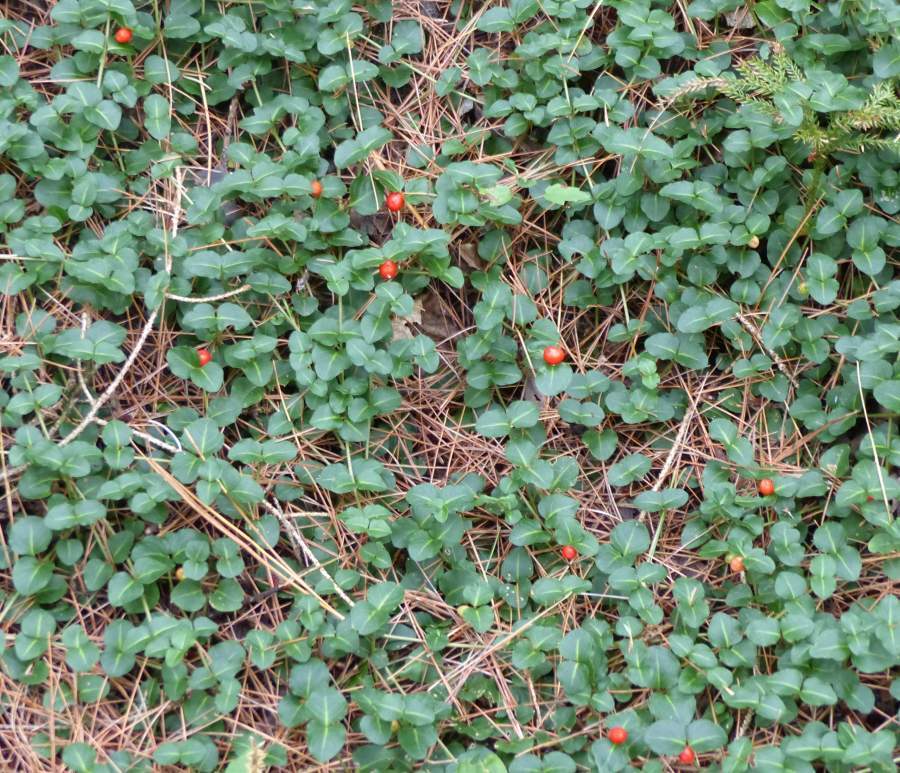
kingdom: Plantae
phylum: Tracheophyta
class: Magnoliopsida
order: Gentianales
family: Rubiaceae
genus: Mitchella
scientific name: Mitchella repens
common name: Partridge-berry
